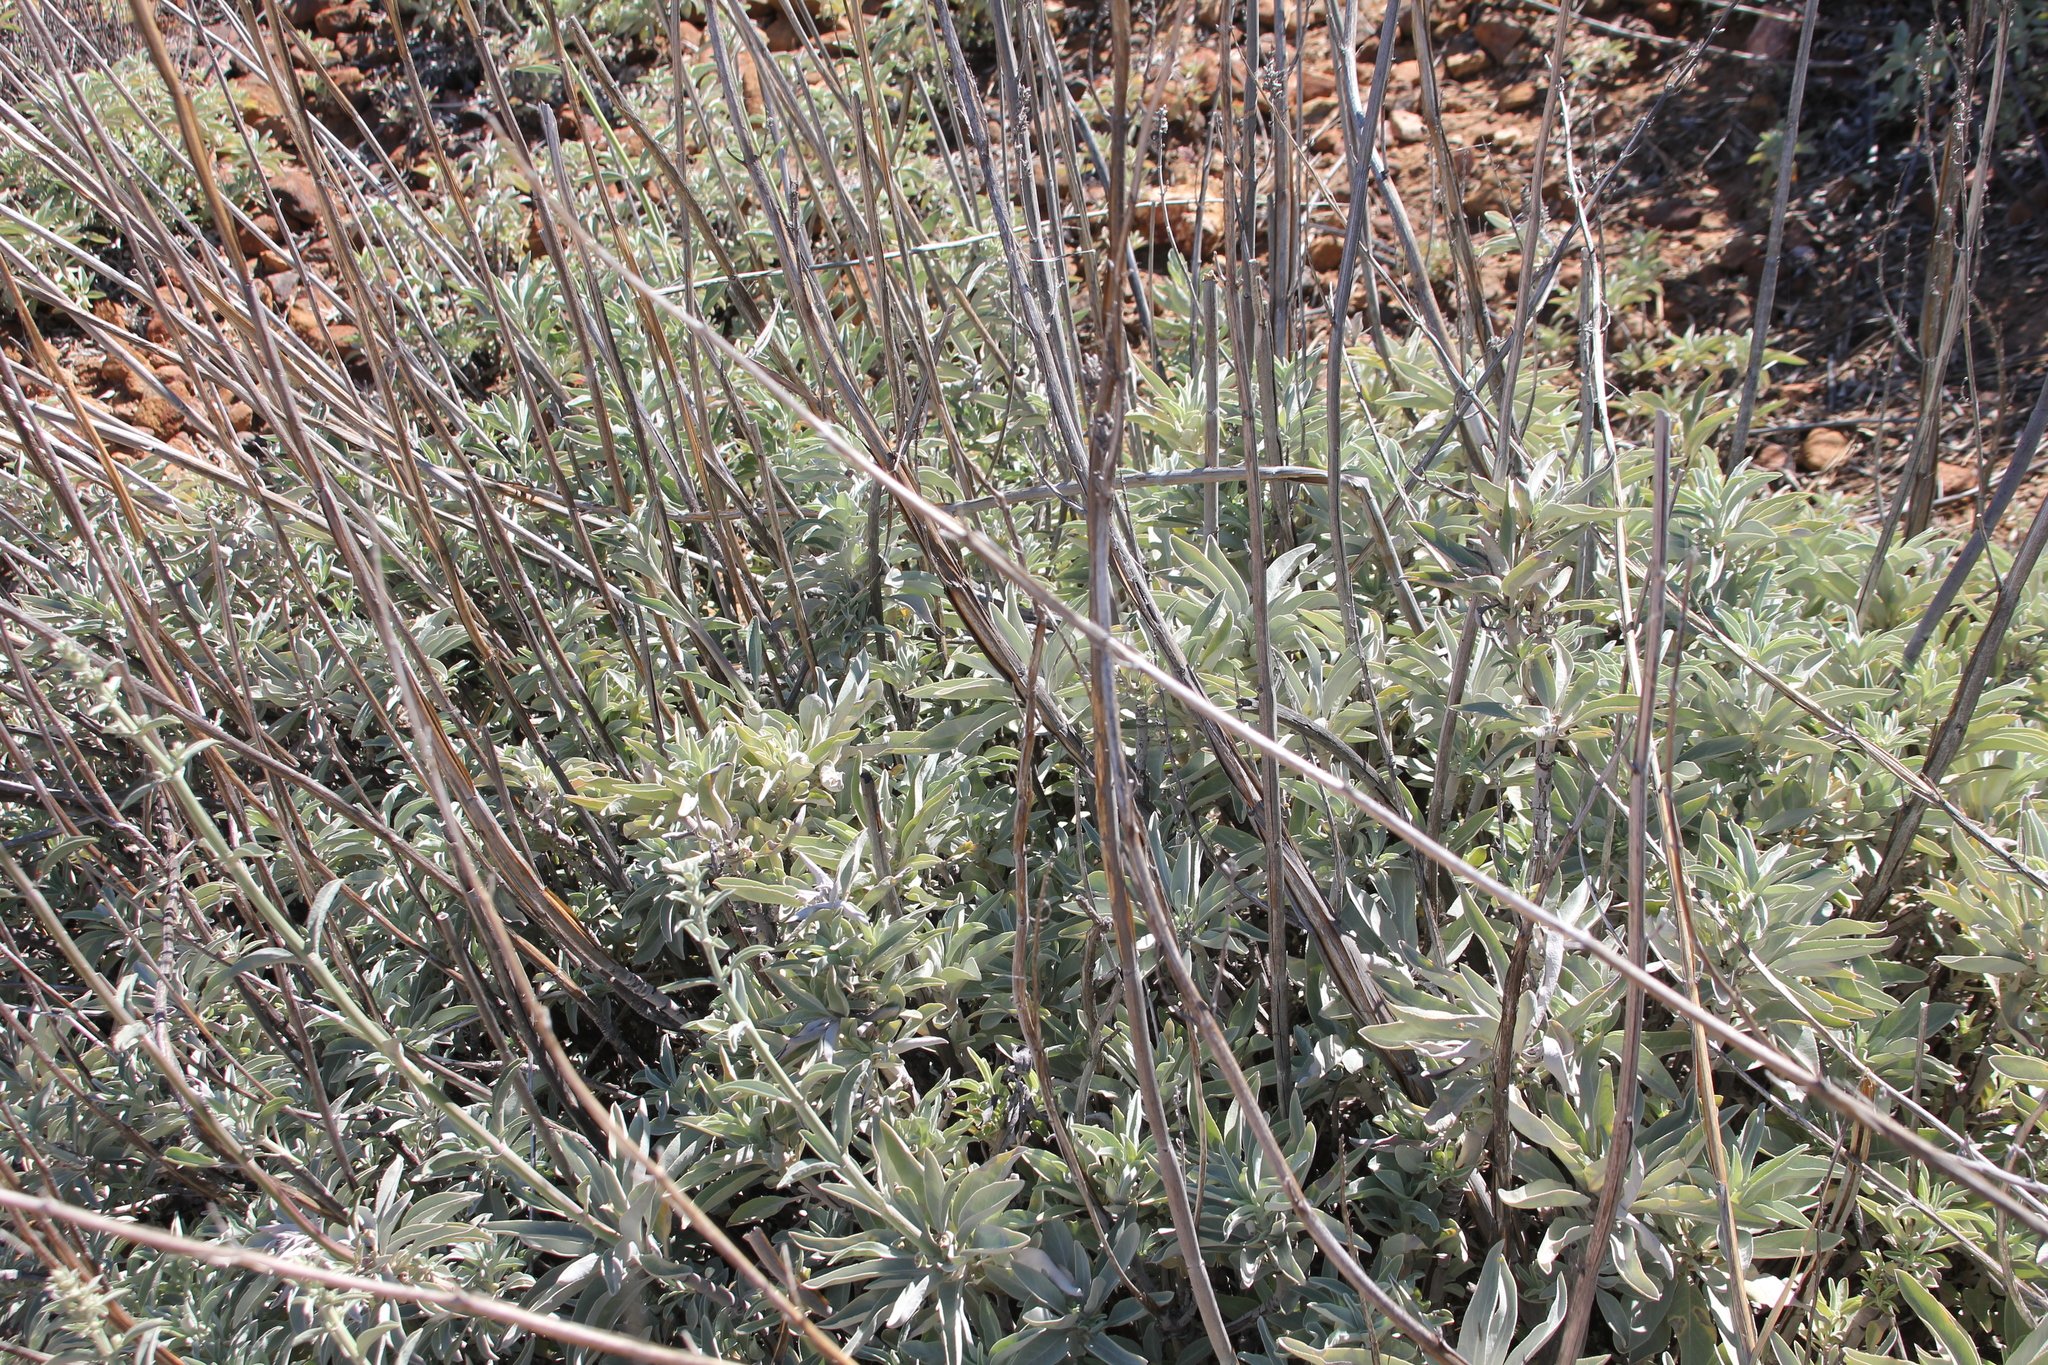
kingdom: Plantae
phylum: Tracheophyta
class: Magnoliopsida
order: Lamiales
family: Lamiaceae
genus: Salvia
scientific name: Salvia apiana
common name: White sage
